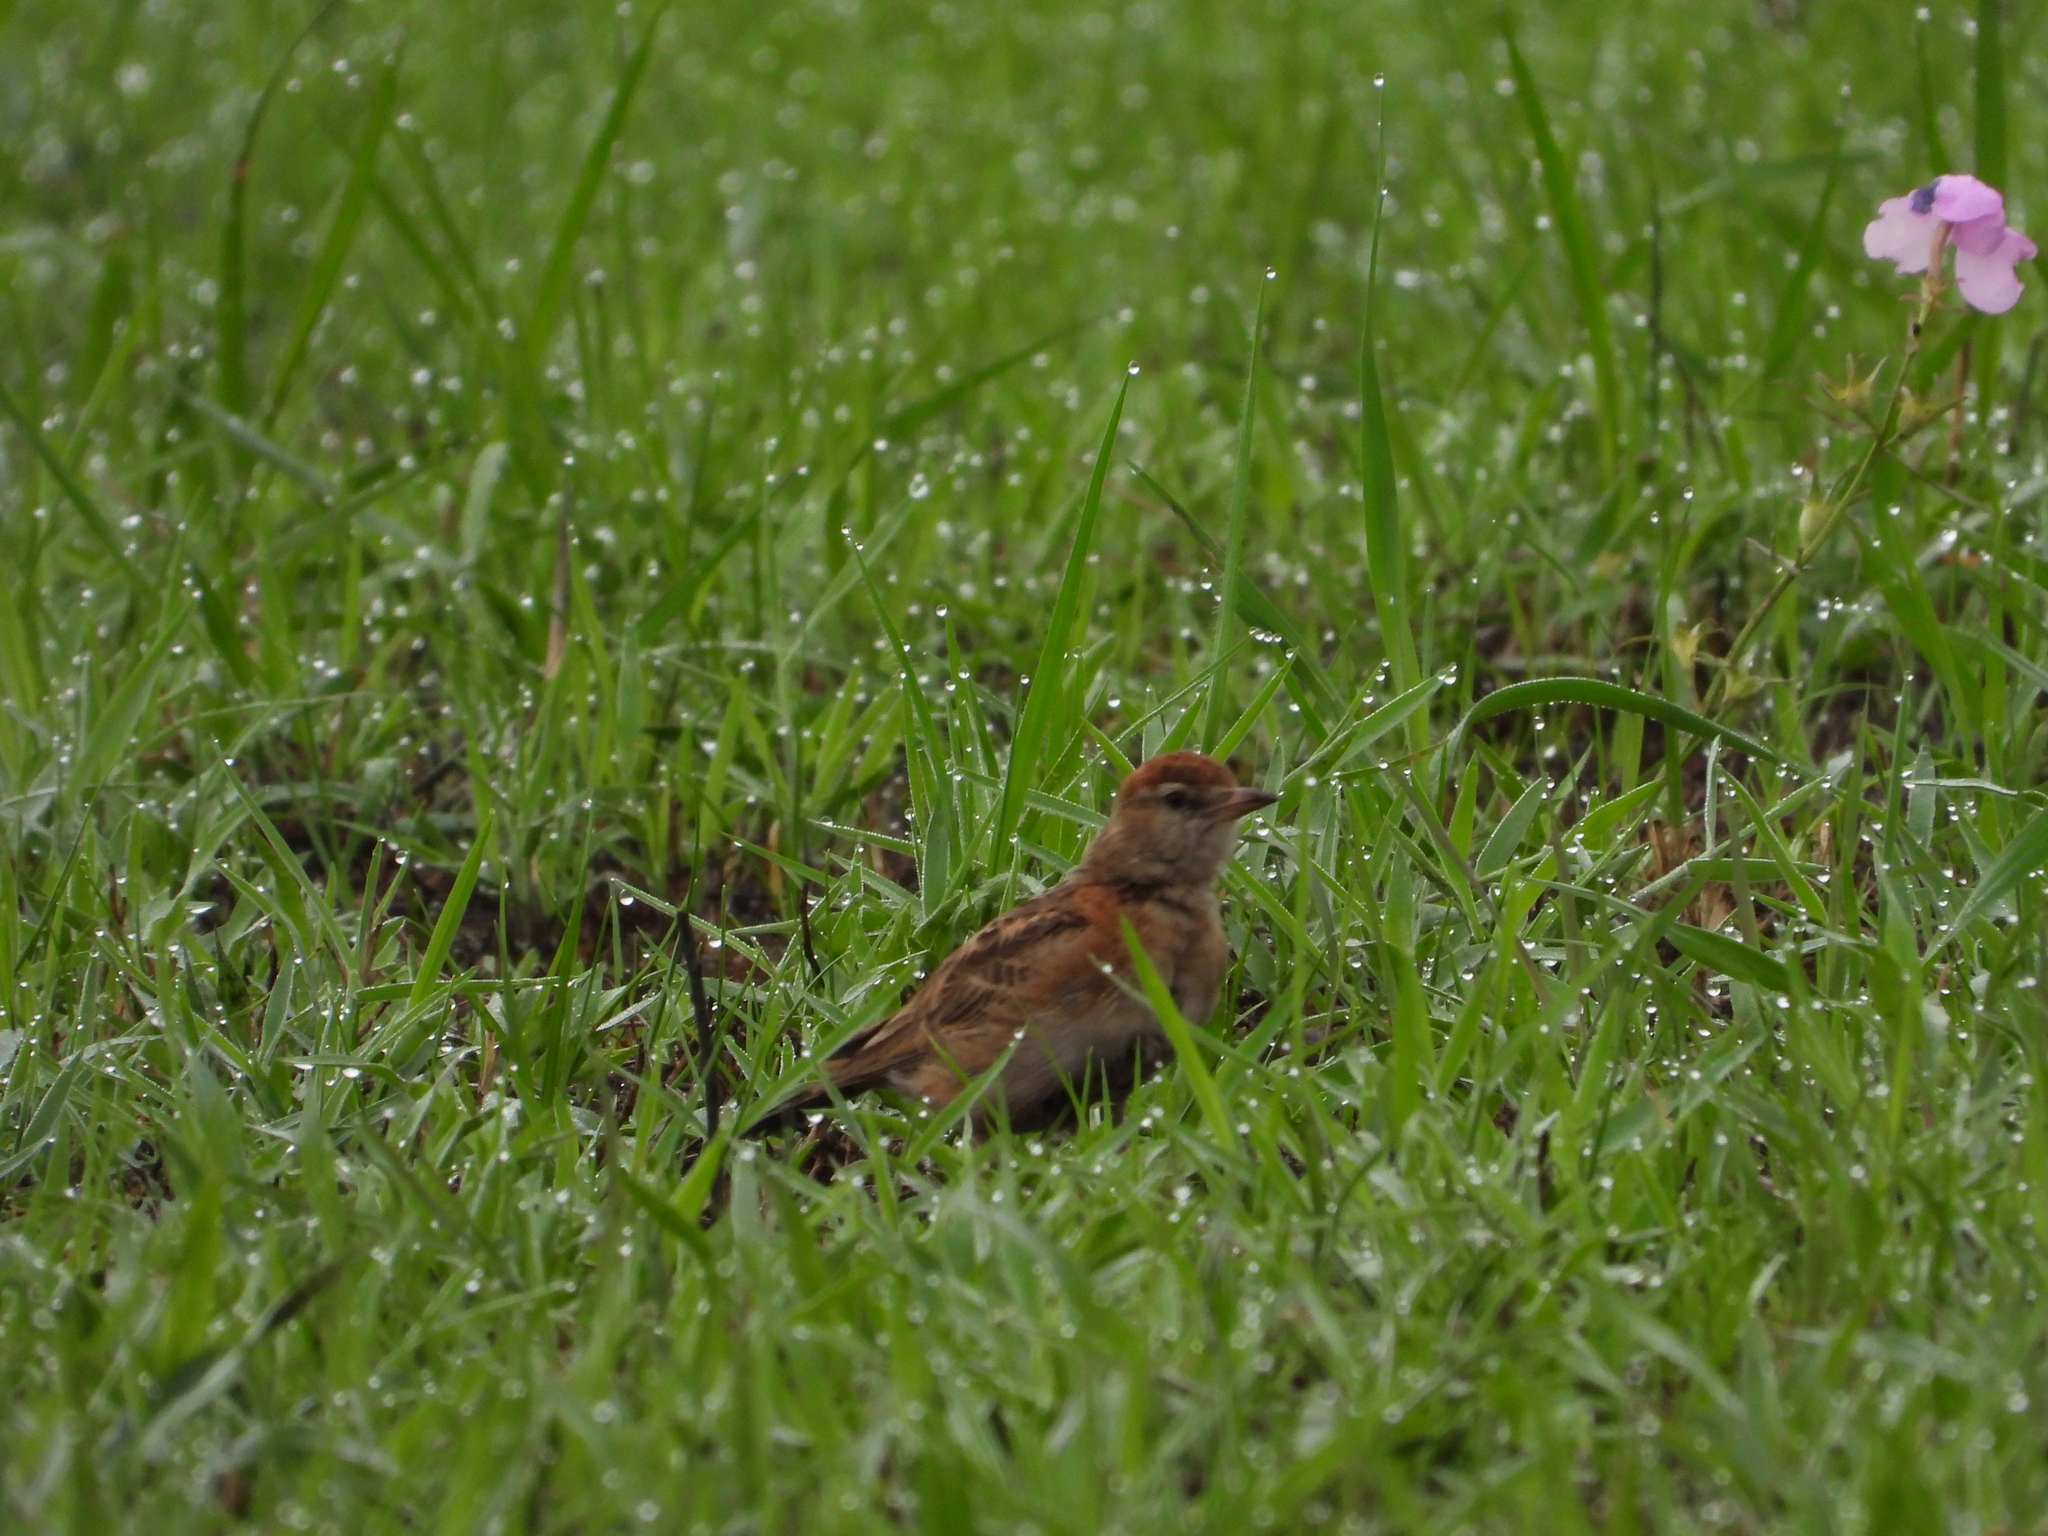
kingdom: Animalia
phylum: Chordata
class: Aves
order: Passeriformes
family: Alaudidae
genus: Calandrella
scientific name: Calandrella cinerea
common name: Red-capped lark
